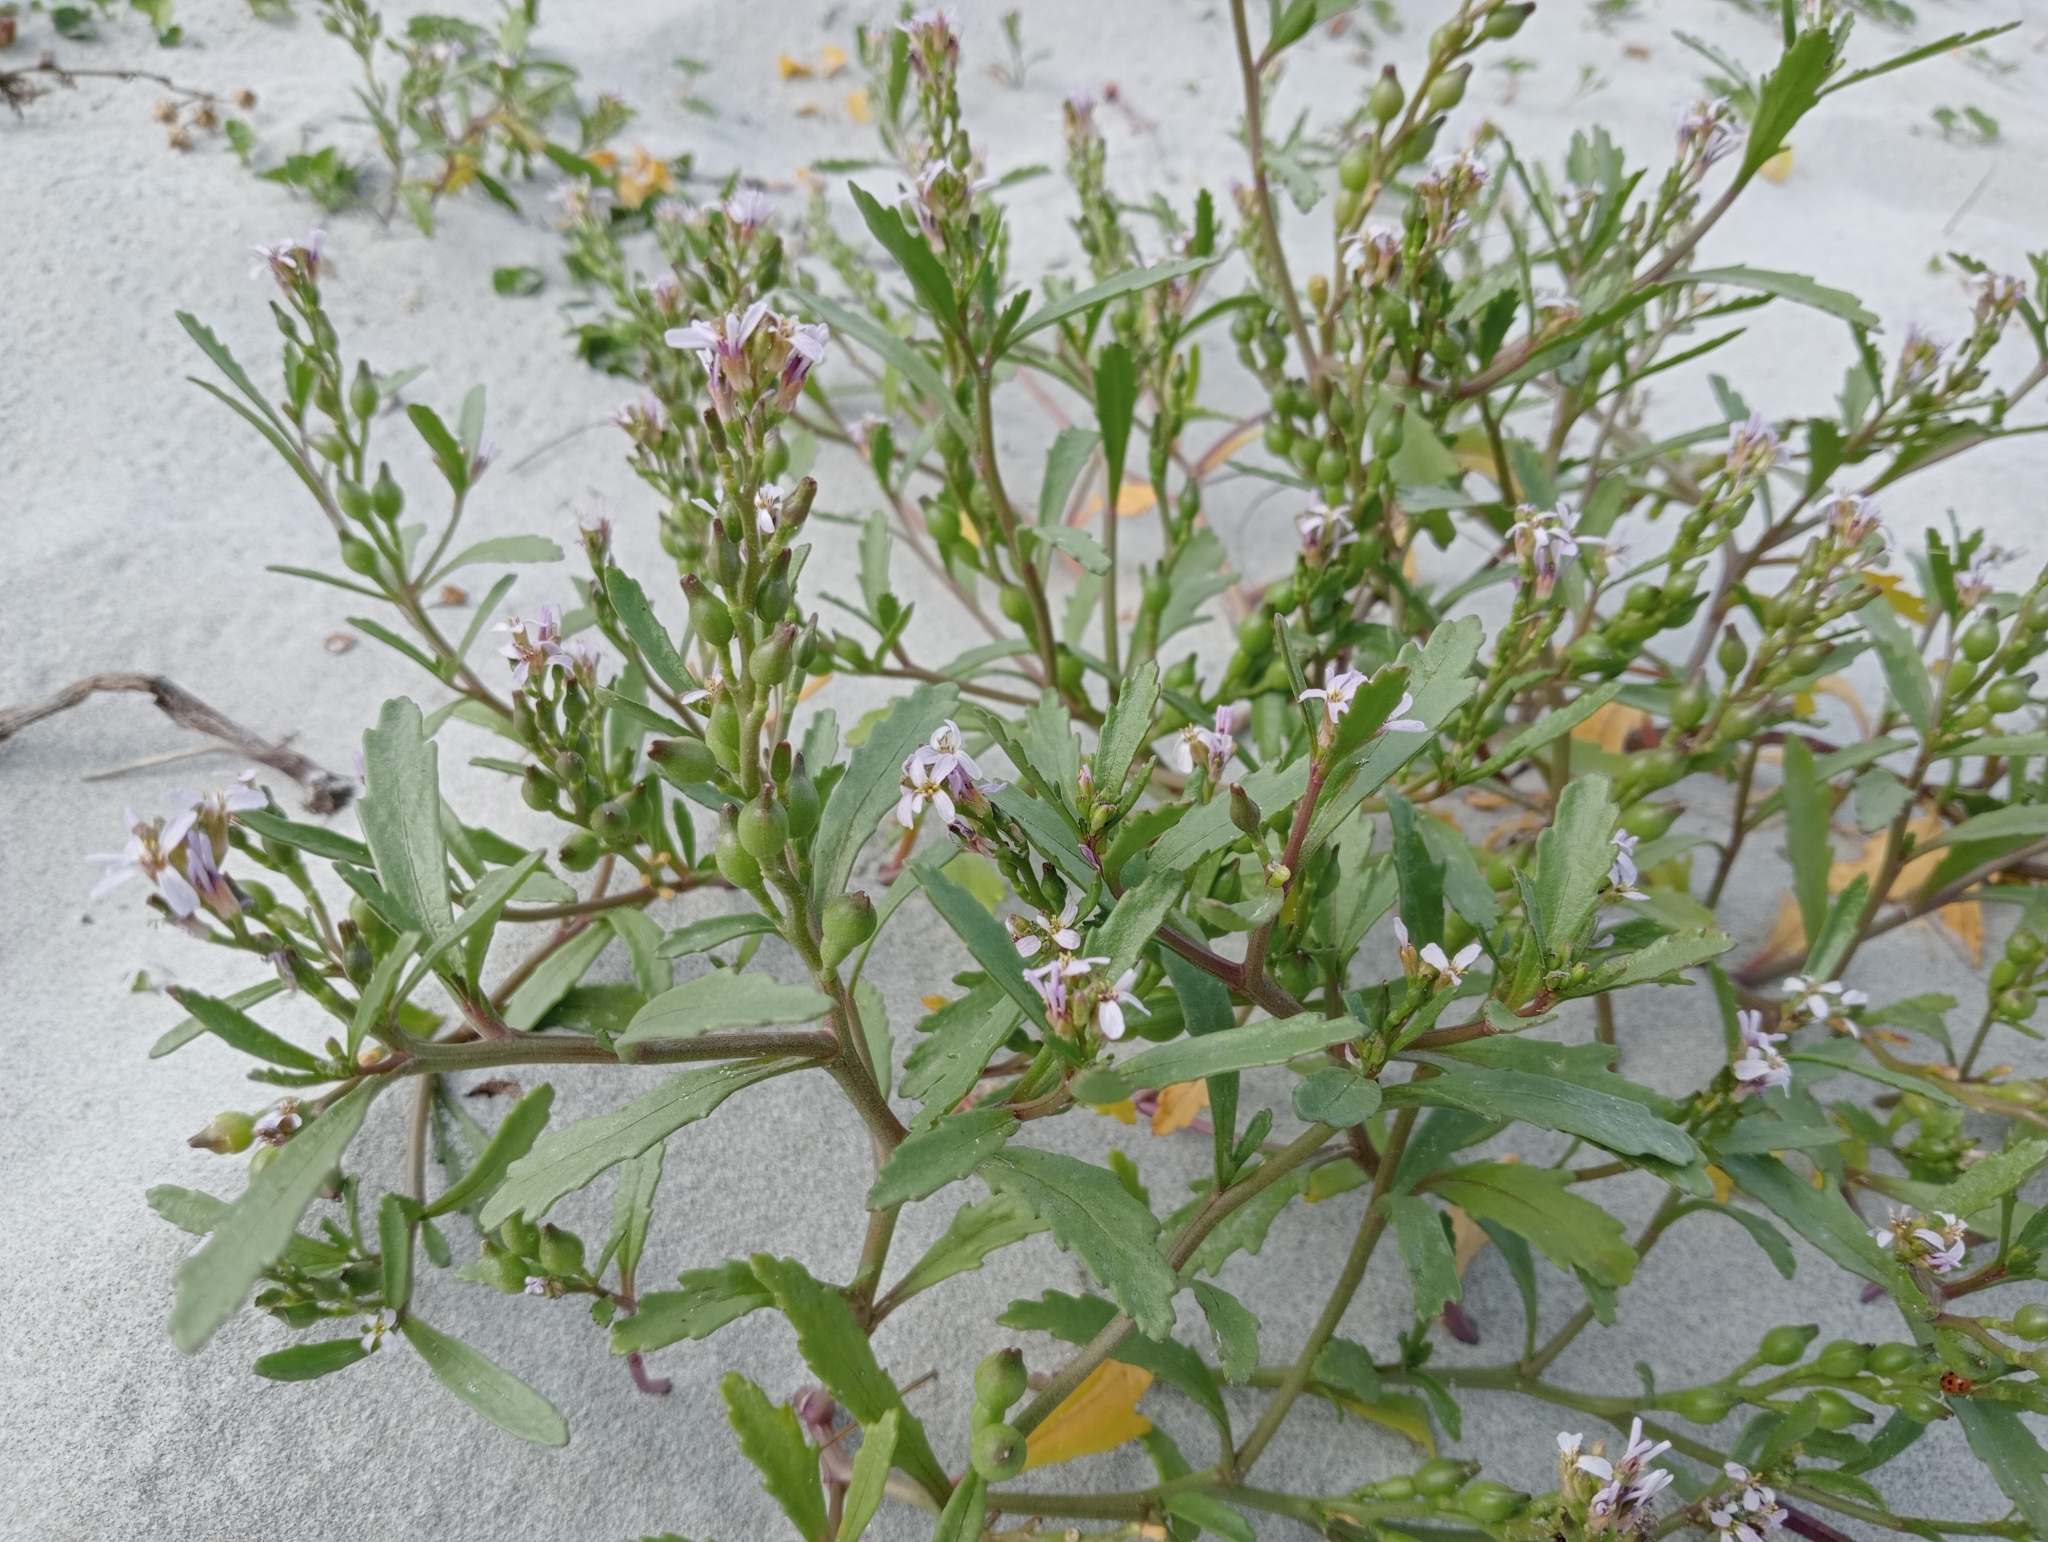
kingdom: Plantae
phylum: Tracheophyta
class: Magnoliopsida
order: Brassicales
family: Brassicaceae
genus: Cakile
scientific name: Cakile edentula
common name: American sea rocket
